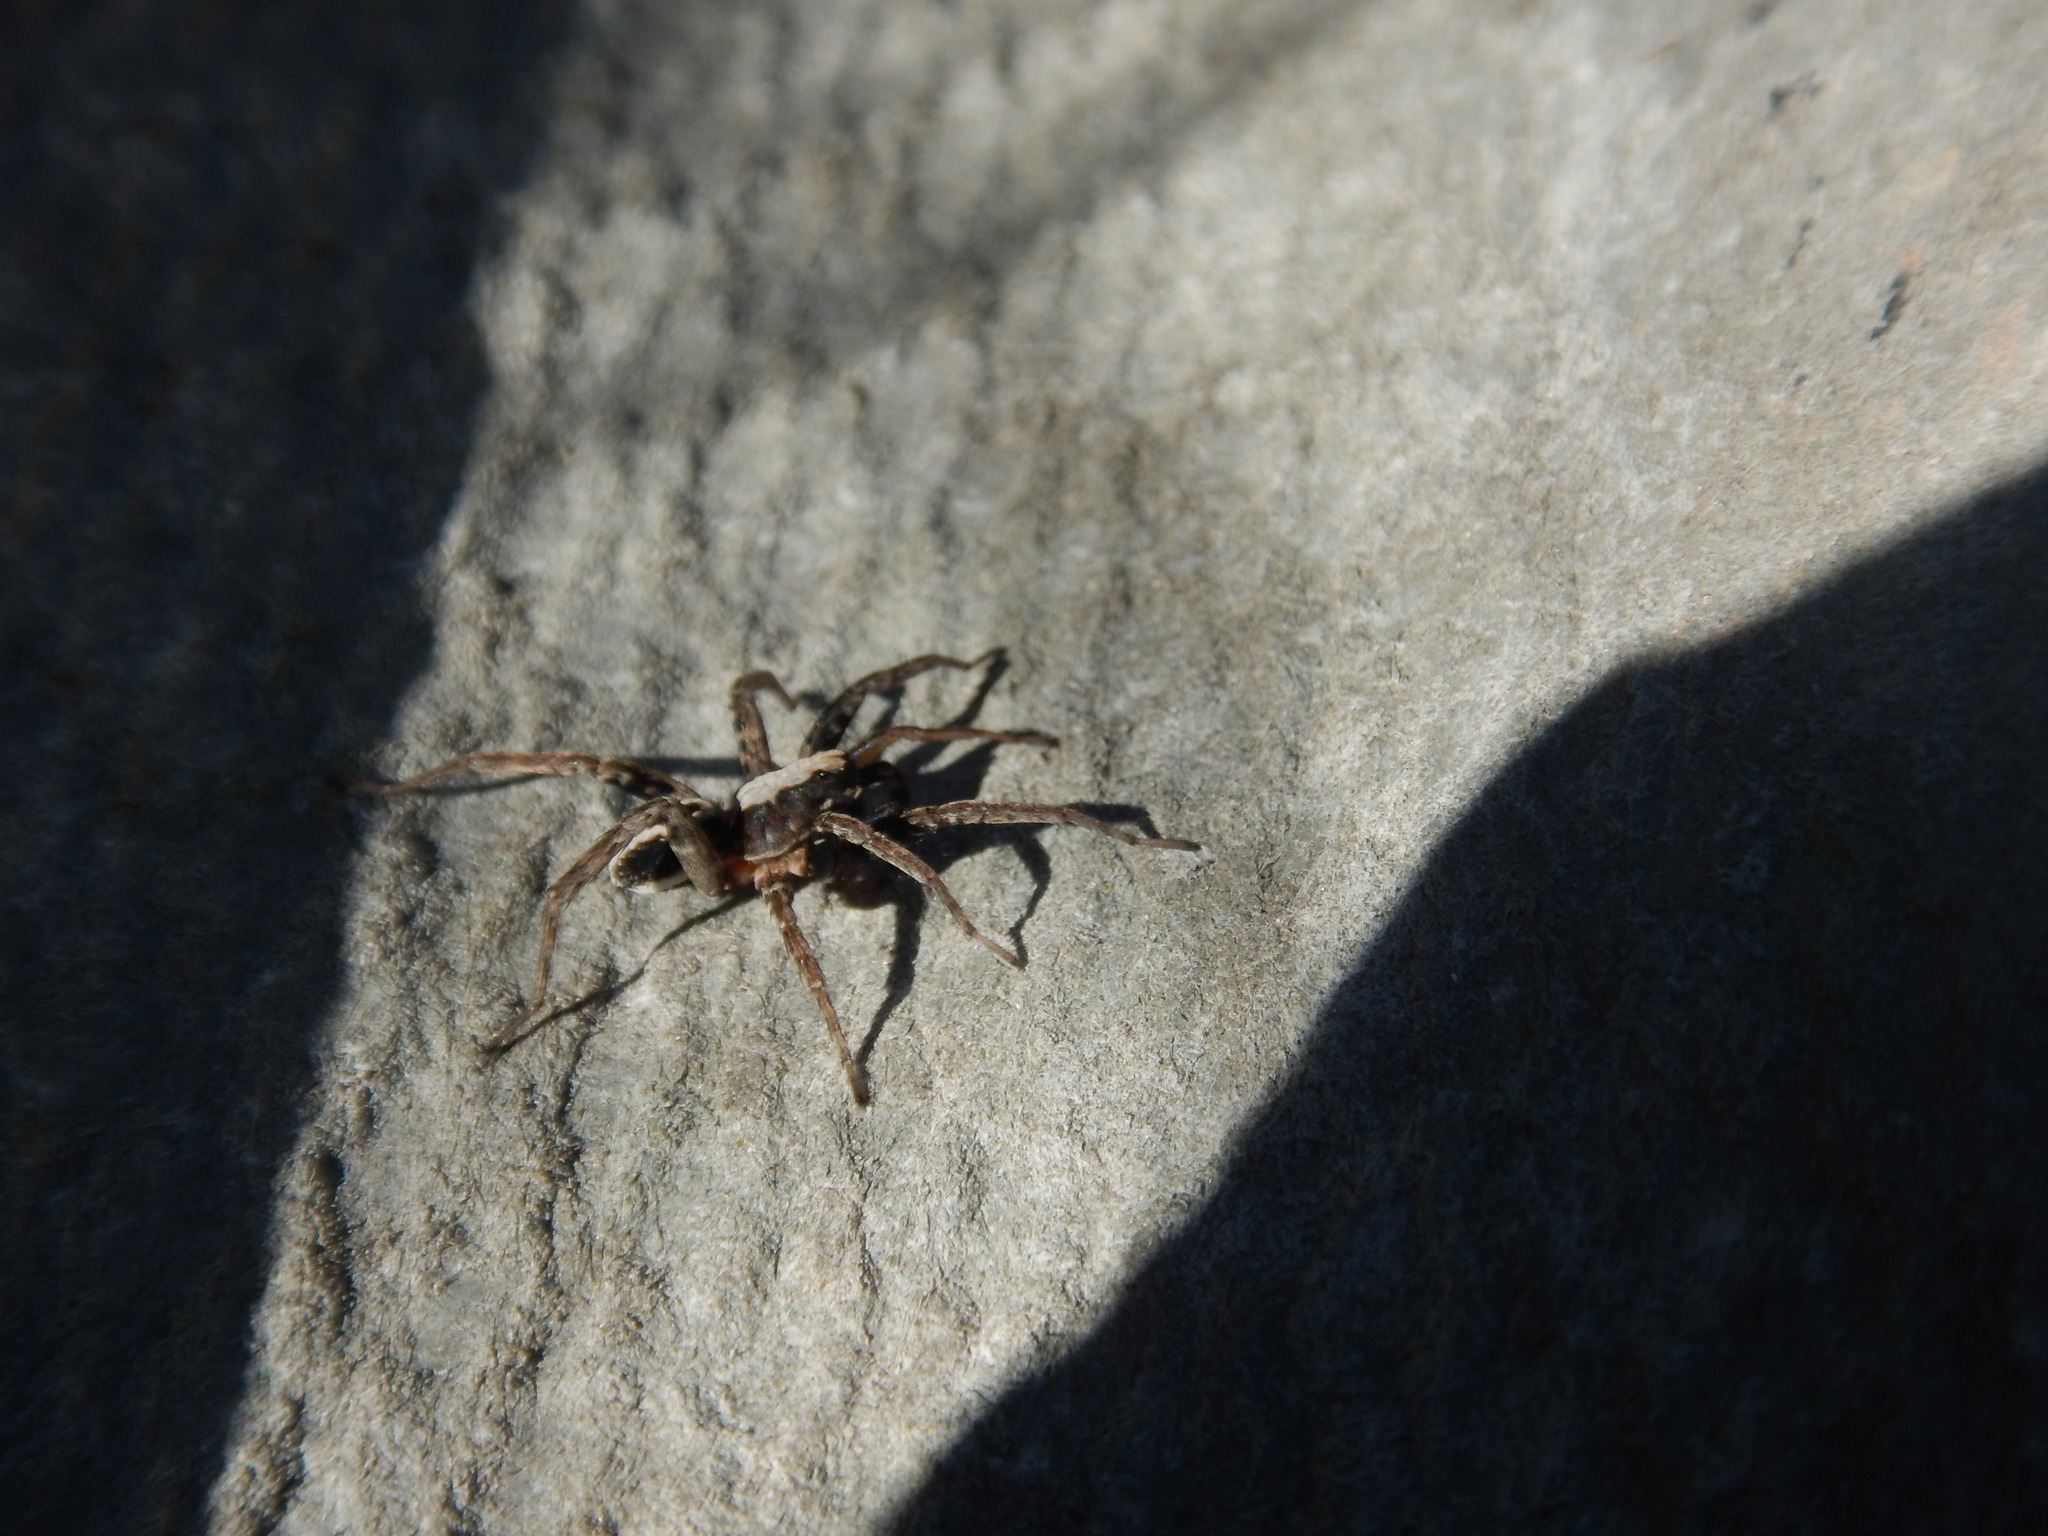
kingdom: Animalia
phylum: Arthropoda
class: Arachnida
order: Araneae
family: Lycosidae
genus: Alopecosa
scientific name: Alopecosa albofasciata
